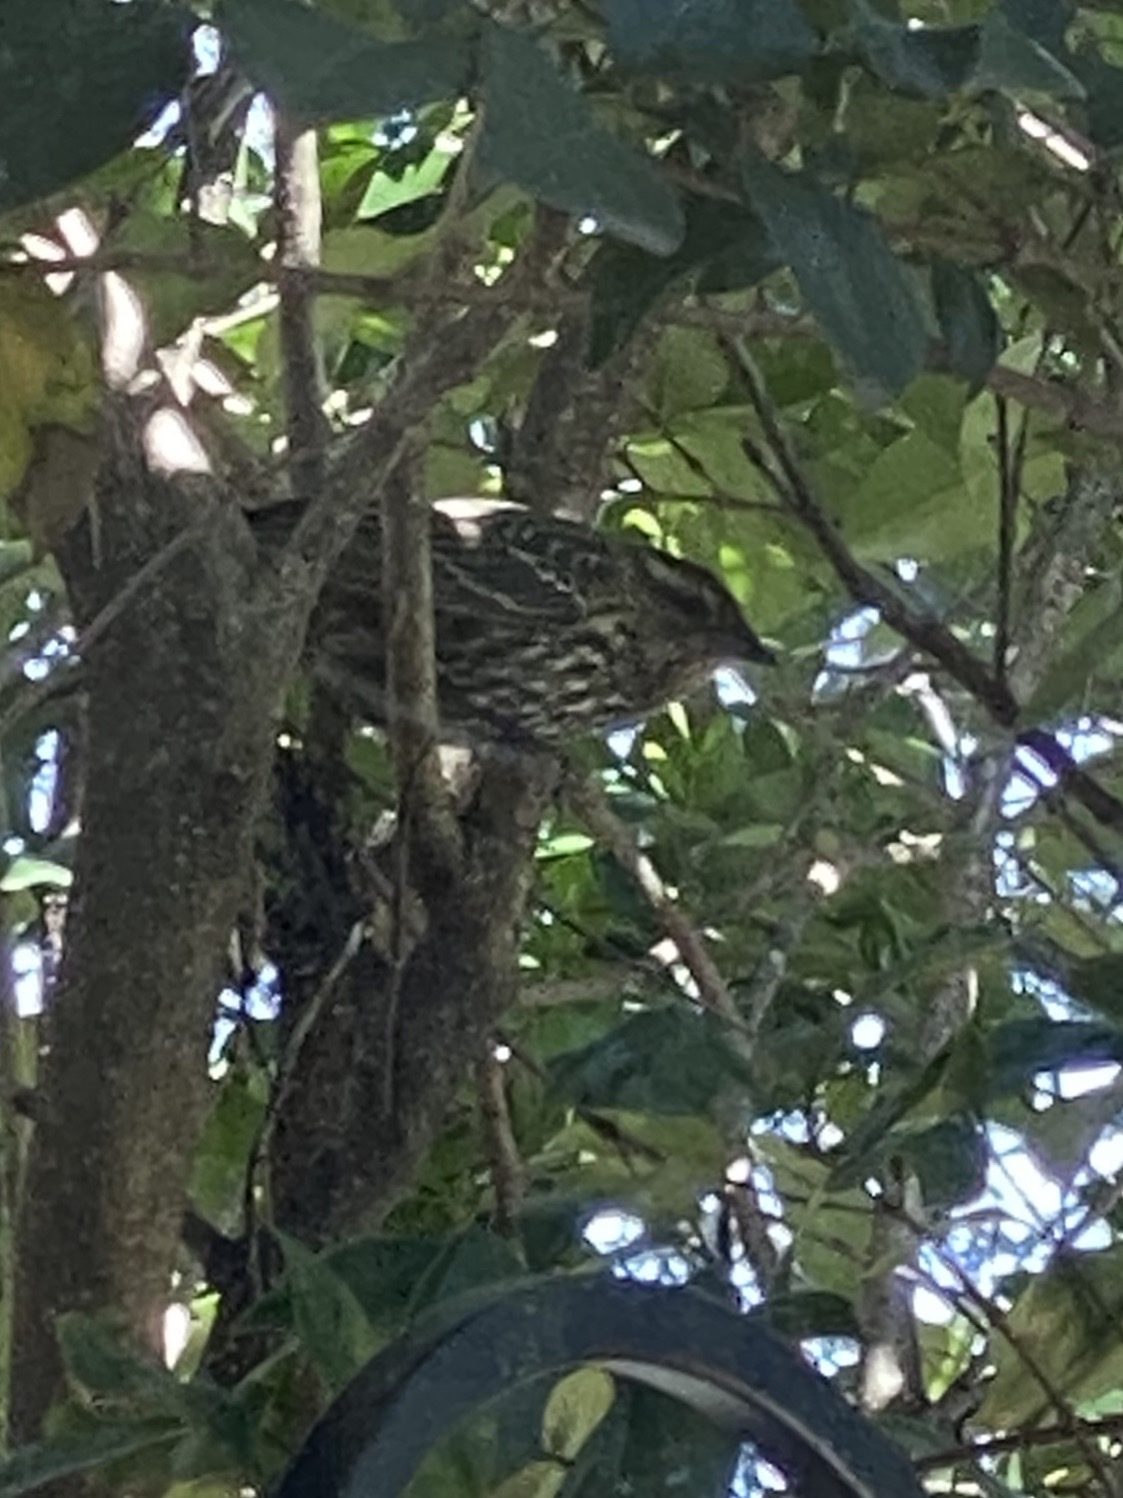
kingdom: Animalia
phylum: Chordata
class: Aves
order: Passeriformes
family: Icteridae
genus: Agelaius
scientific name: Agelaius phoeniceus
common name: Red-winged blackbird
